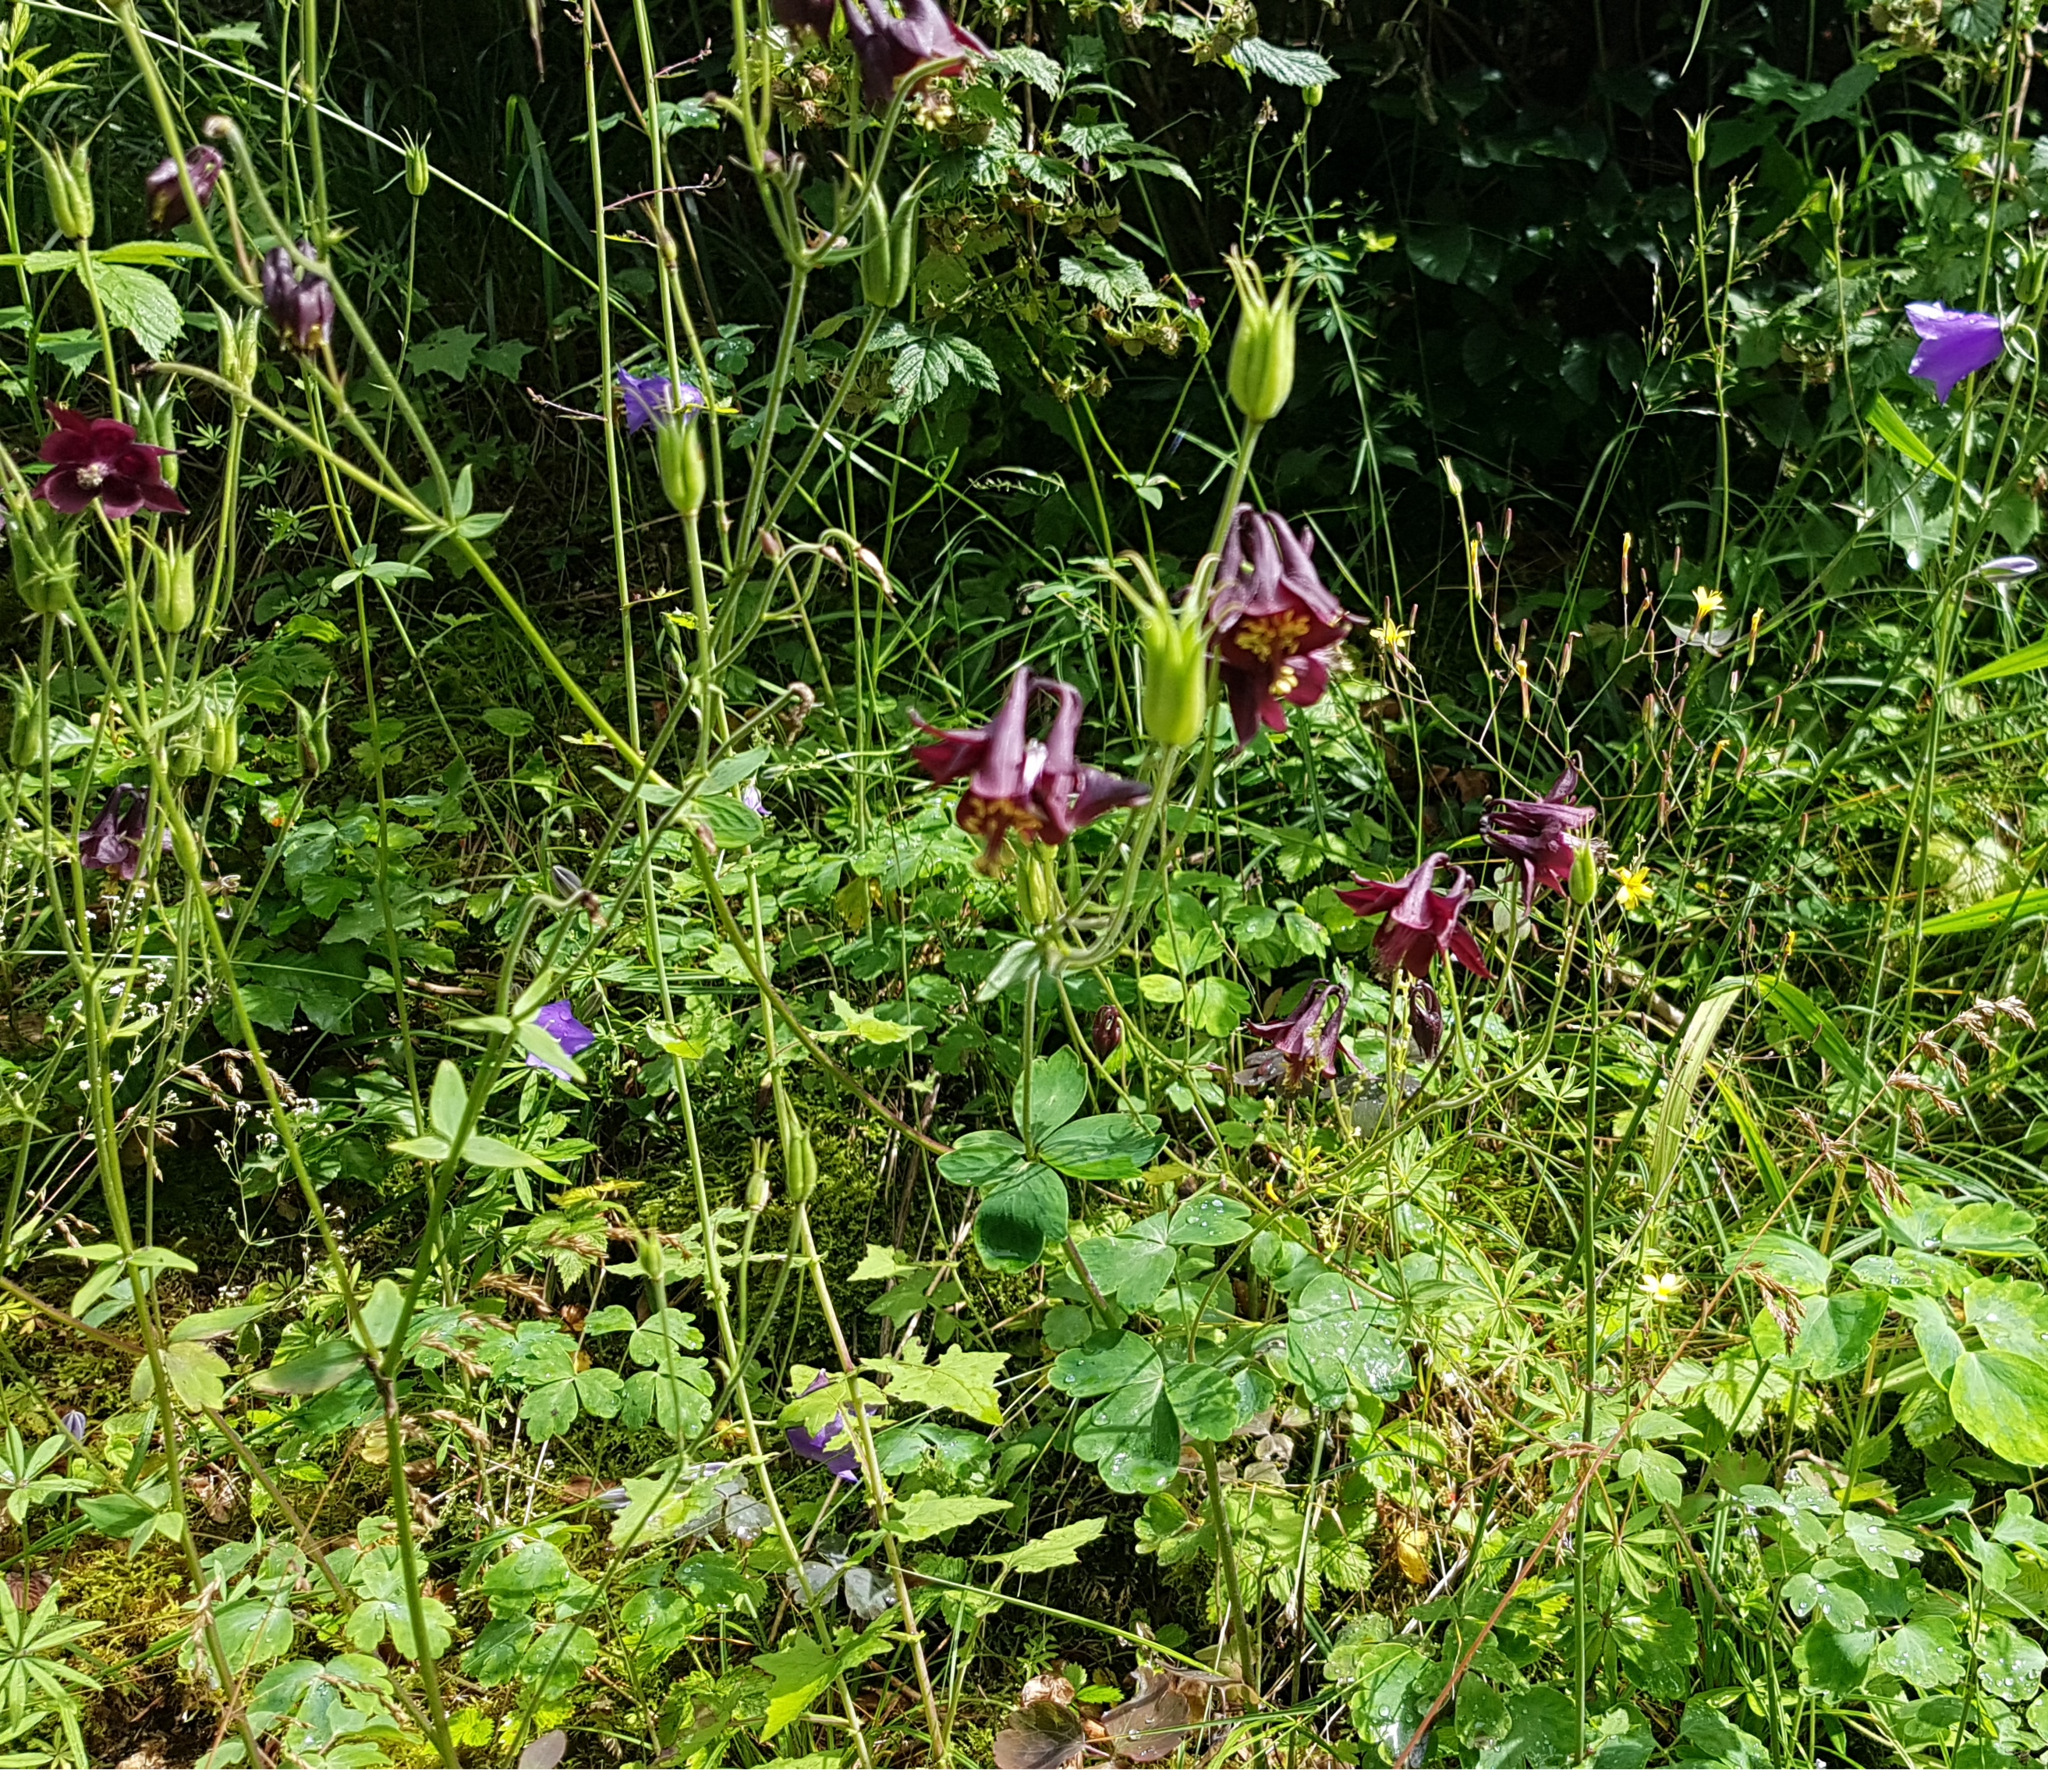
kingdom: Plantae
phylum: Tracheophyta
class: Magnoliopsida
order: Ranunculales
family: Ranunculaceae
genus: Aquilegia
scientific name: Aquilegia atrata
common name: Dark columbine
